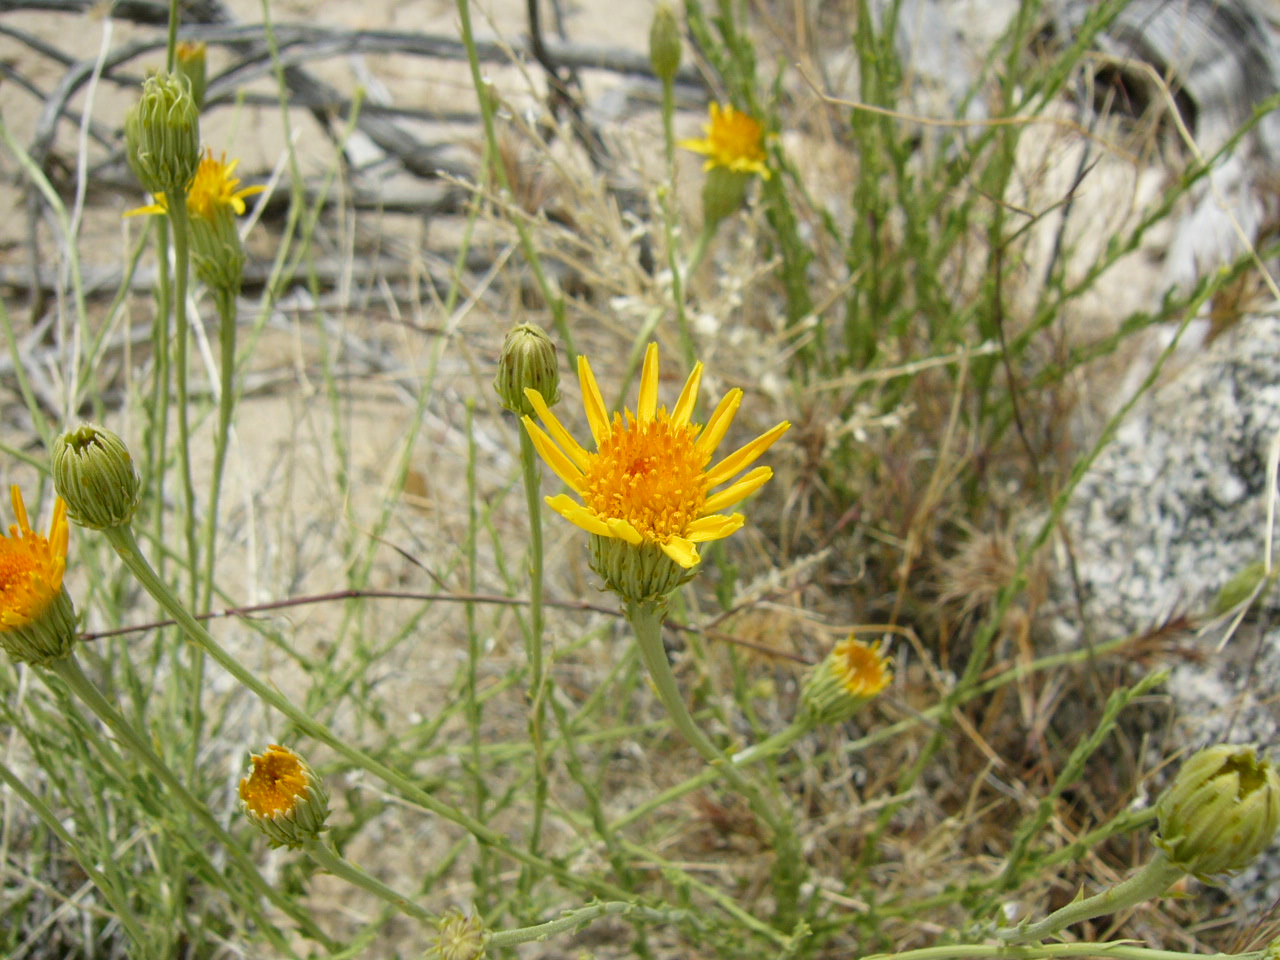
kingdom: Plantae
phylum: Tracheophyta
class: Magnoliopsida
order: Asterales
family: Asteraceae
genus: Adenophyllum
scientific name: Adenophyllum cooperi
